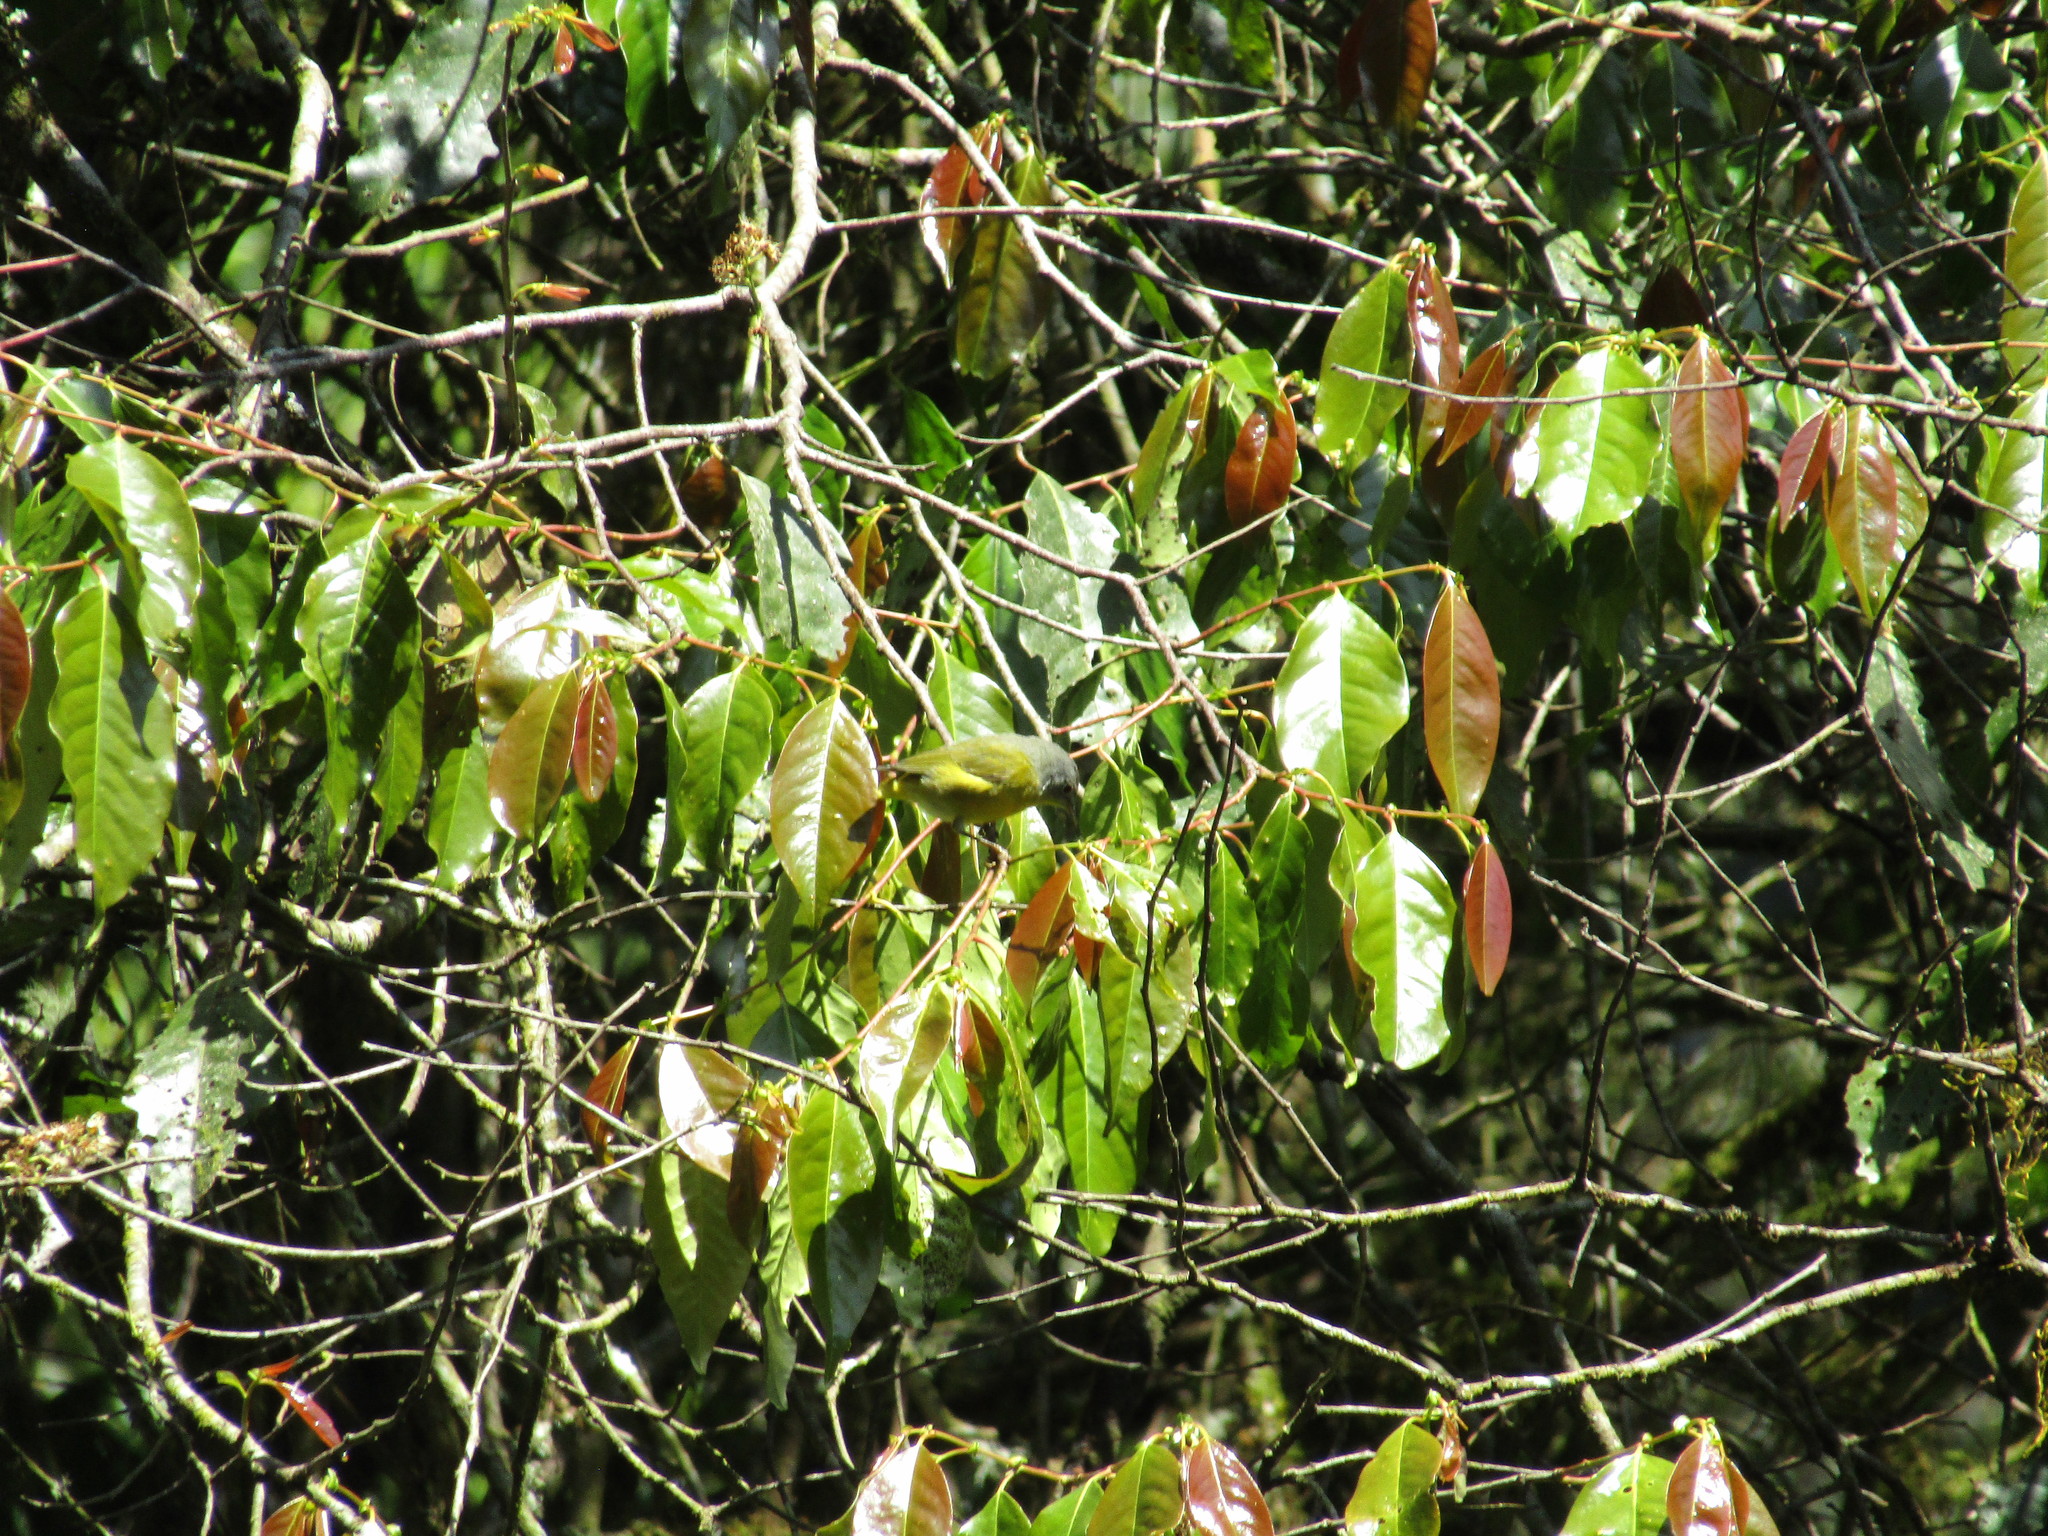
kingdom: Animalia
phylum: Chordata
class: Aves
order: Passeriformes
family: Parulidae
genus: Leiothlypis
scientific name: Leiothlypis ruficapilla
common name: Nashville warbler
